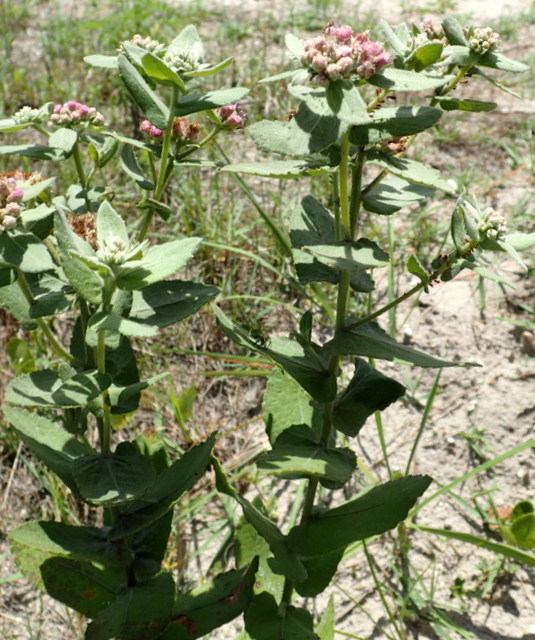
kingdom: Plantae
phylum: Tracheophyta
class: Magnoliopsida
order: Asterales
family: Asteraceae
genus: Pluchea
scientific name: Pluchea baccharis
